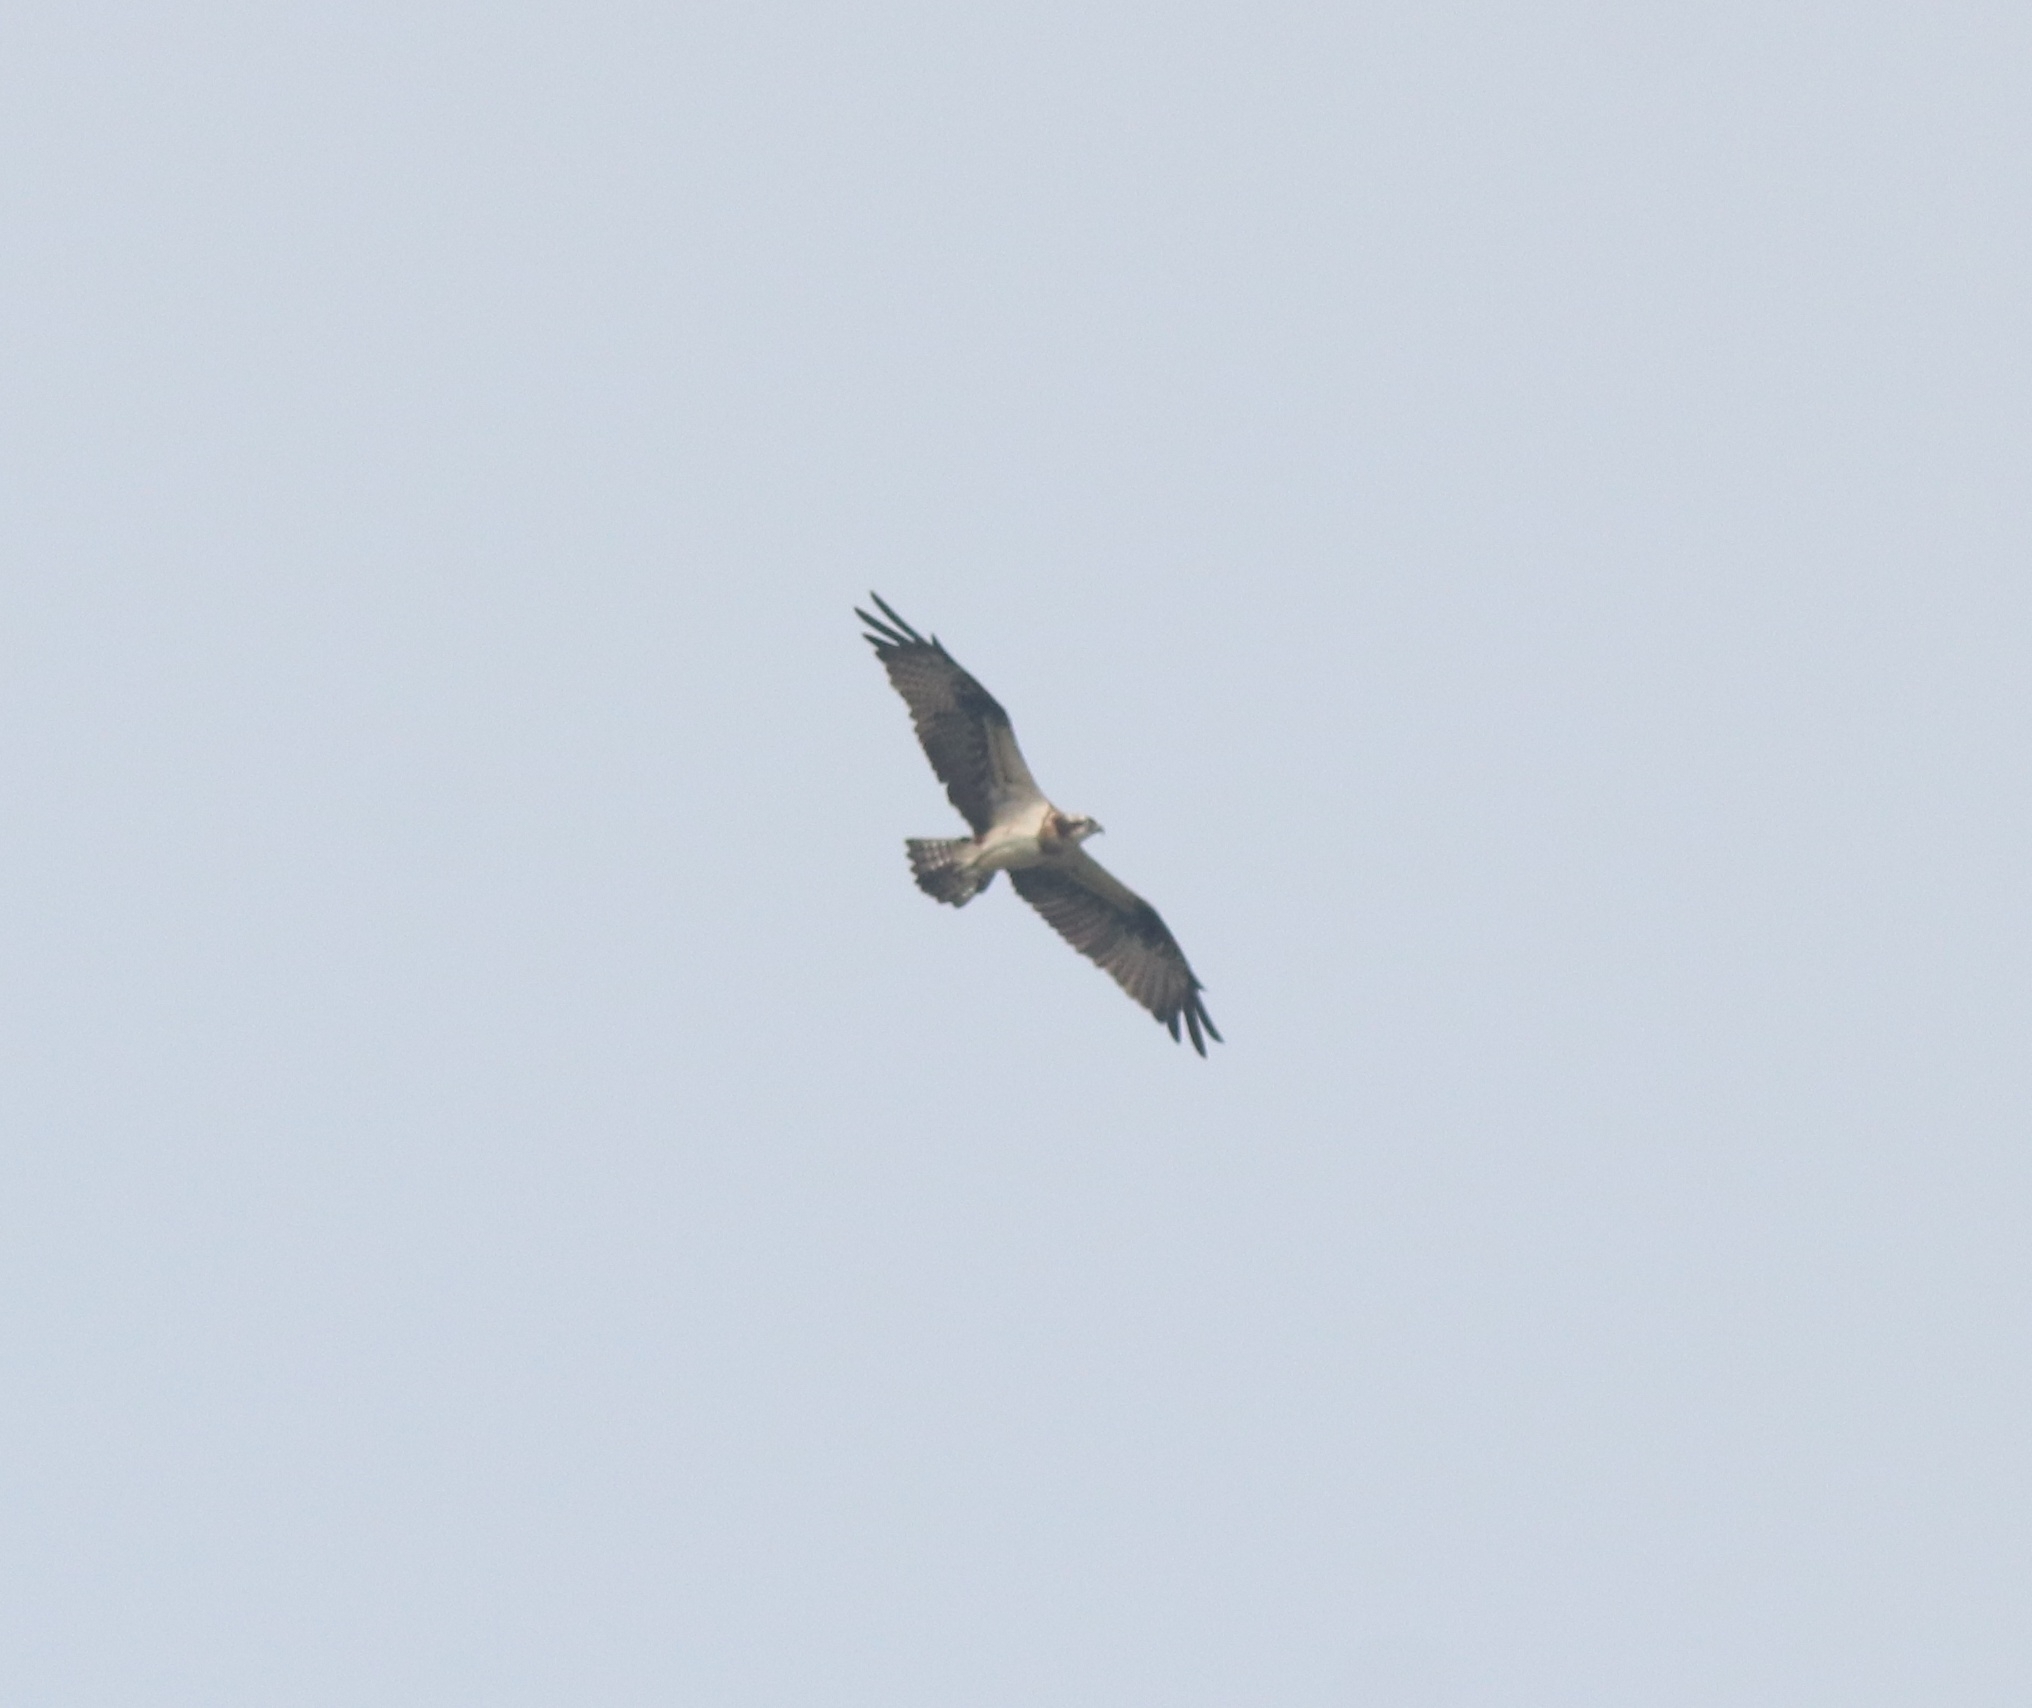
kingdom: Animalia
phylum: Chordata
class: Aves
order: Accipitriformes
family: Pandionidae
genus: Pandion
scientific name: Pandion haliaetus
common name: Osprey
